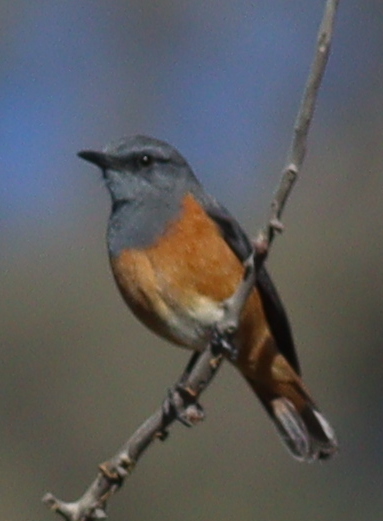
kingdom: Animalia
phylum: Chordata
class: Aves
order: Passeriformes
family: Muscicapidae
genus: Monticola
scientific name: Monticola rufocinereus
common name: Little rock thrush
